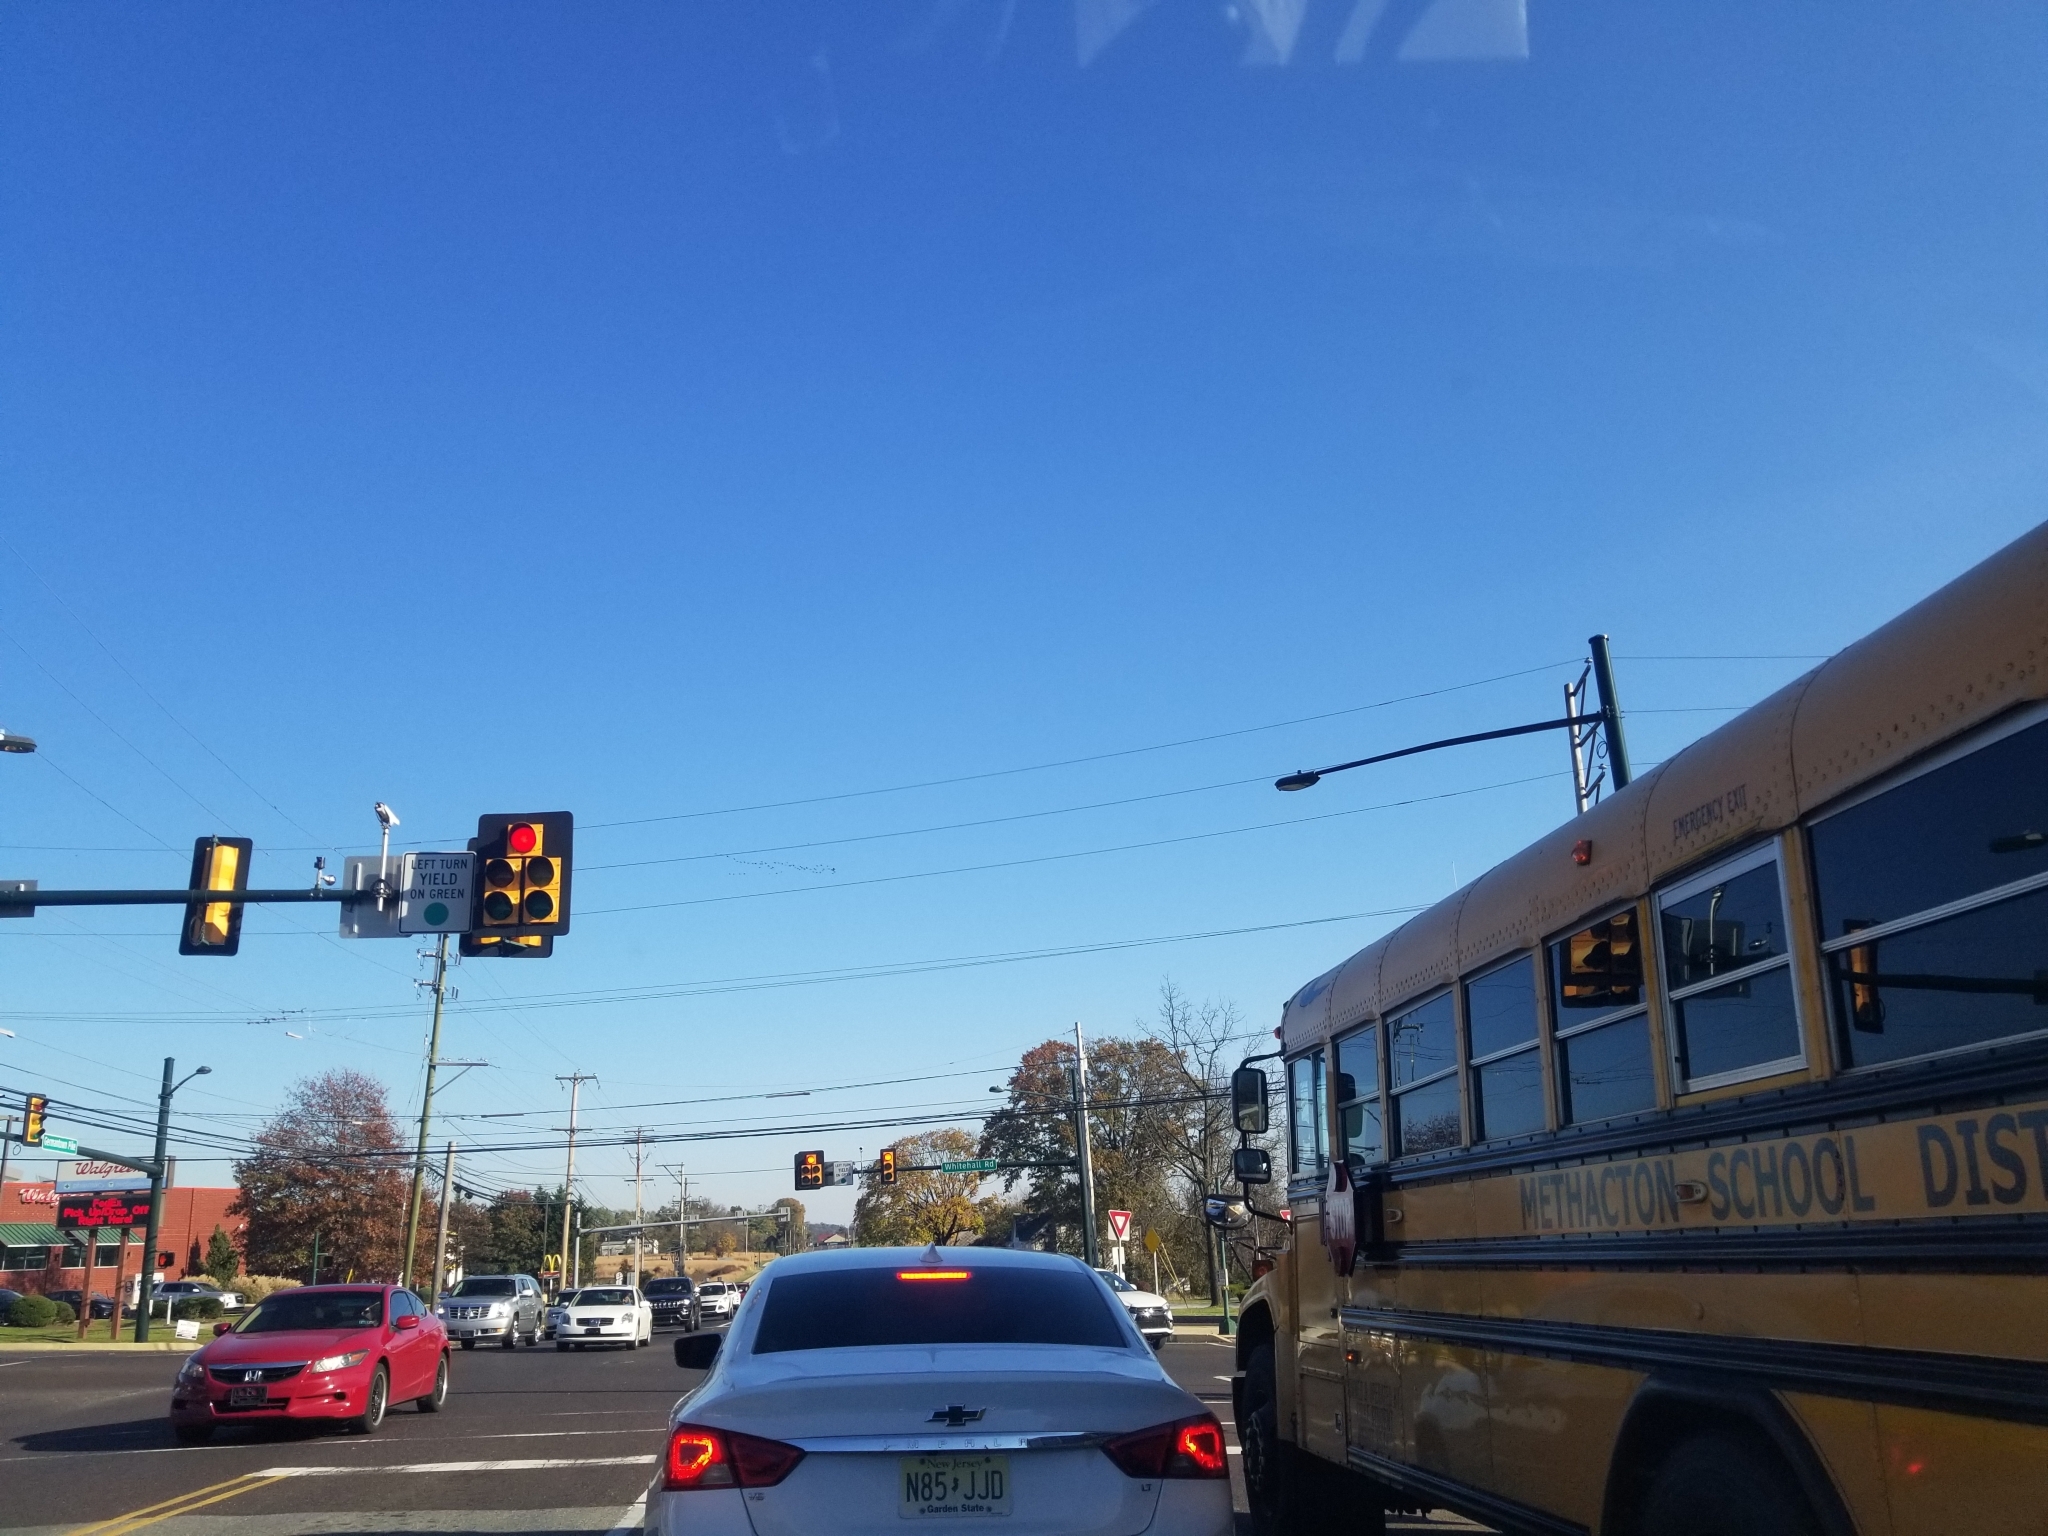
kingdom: Animalia
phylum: Chordata
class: Aves
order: Anseriformes
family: Anatidae
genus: Branta
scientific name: Branta canadensis
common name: Canada goose
